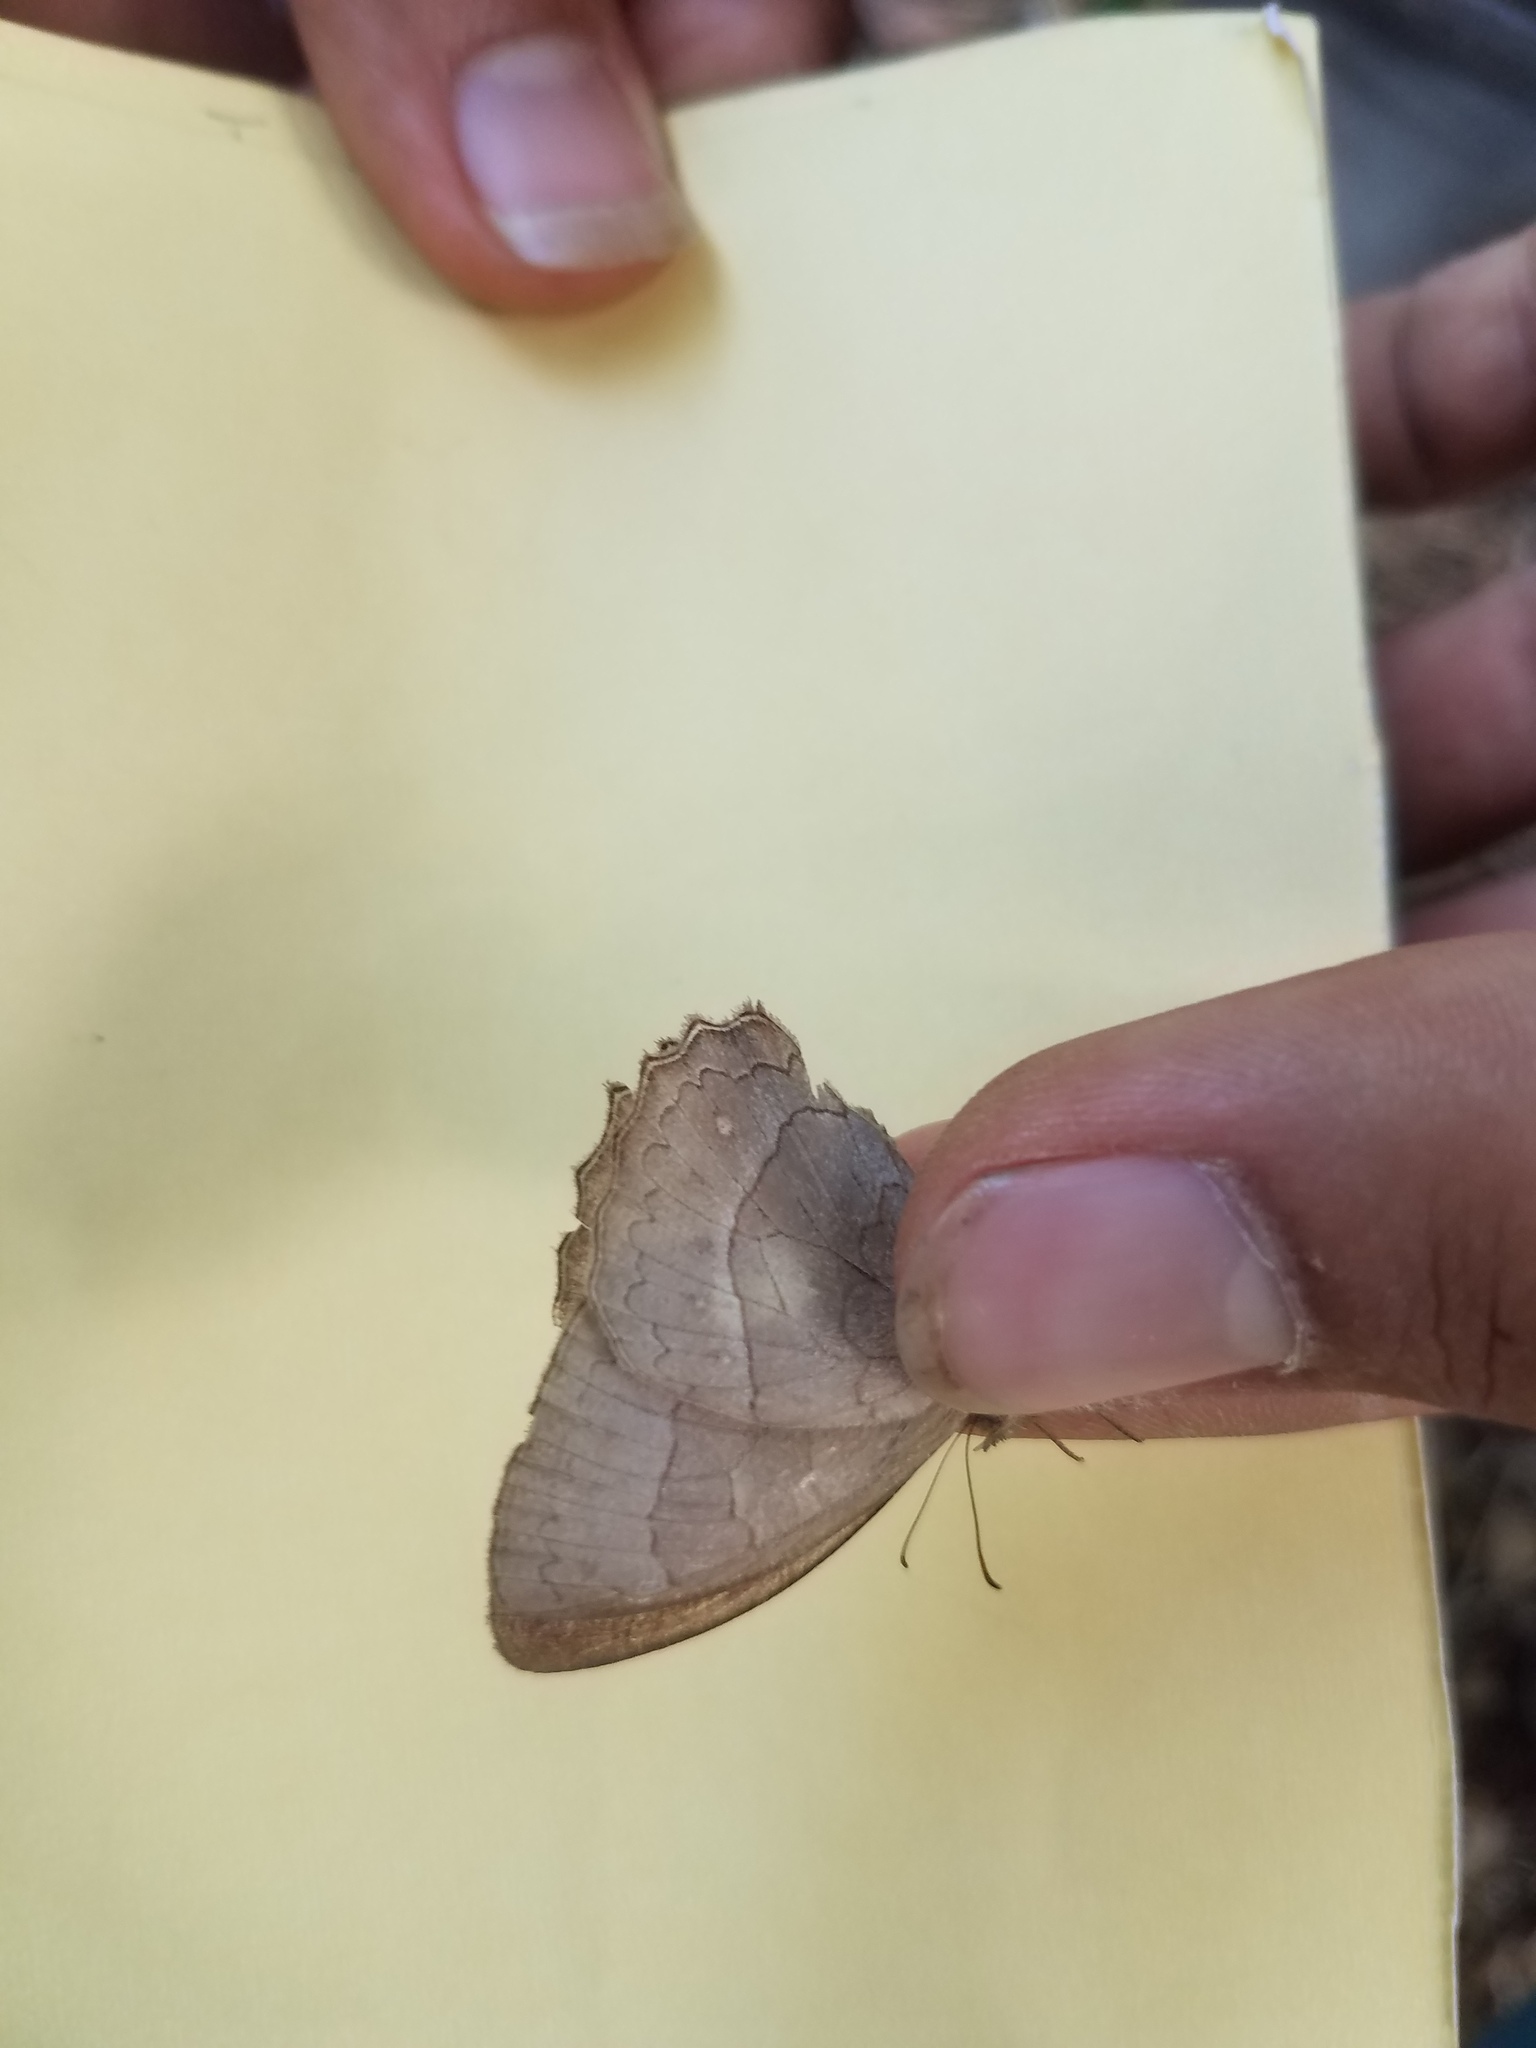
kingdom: Animalia
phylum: Arthropoda
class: Insecta
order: Lepidoptera
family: Nymphalidae
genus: Taygetina
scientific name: Taygetina kerea
